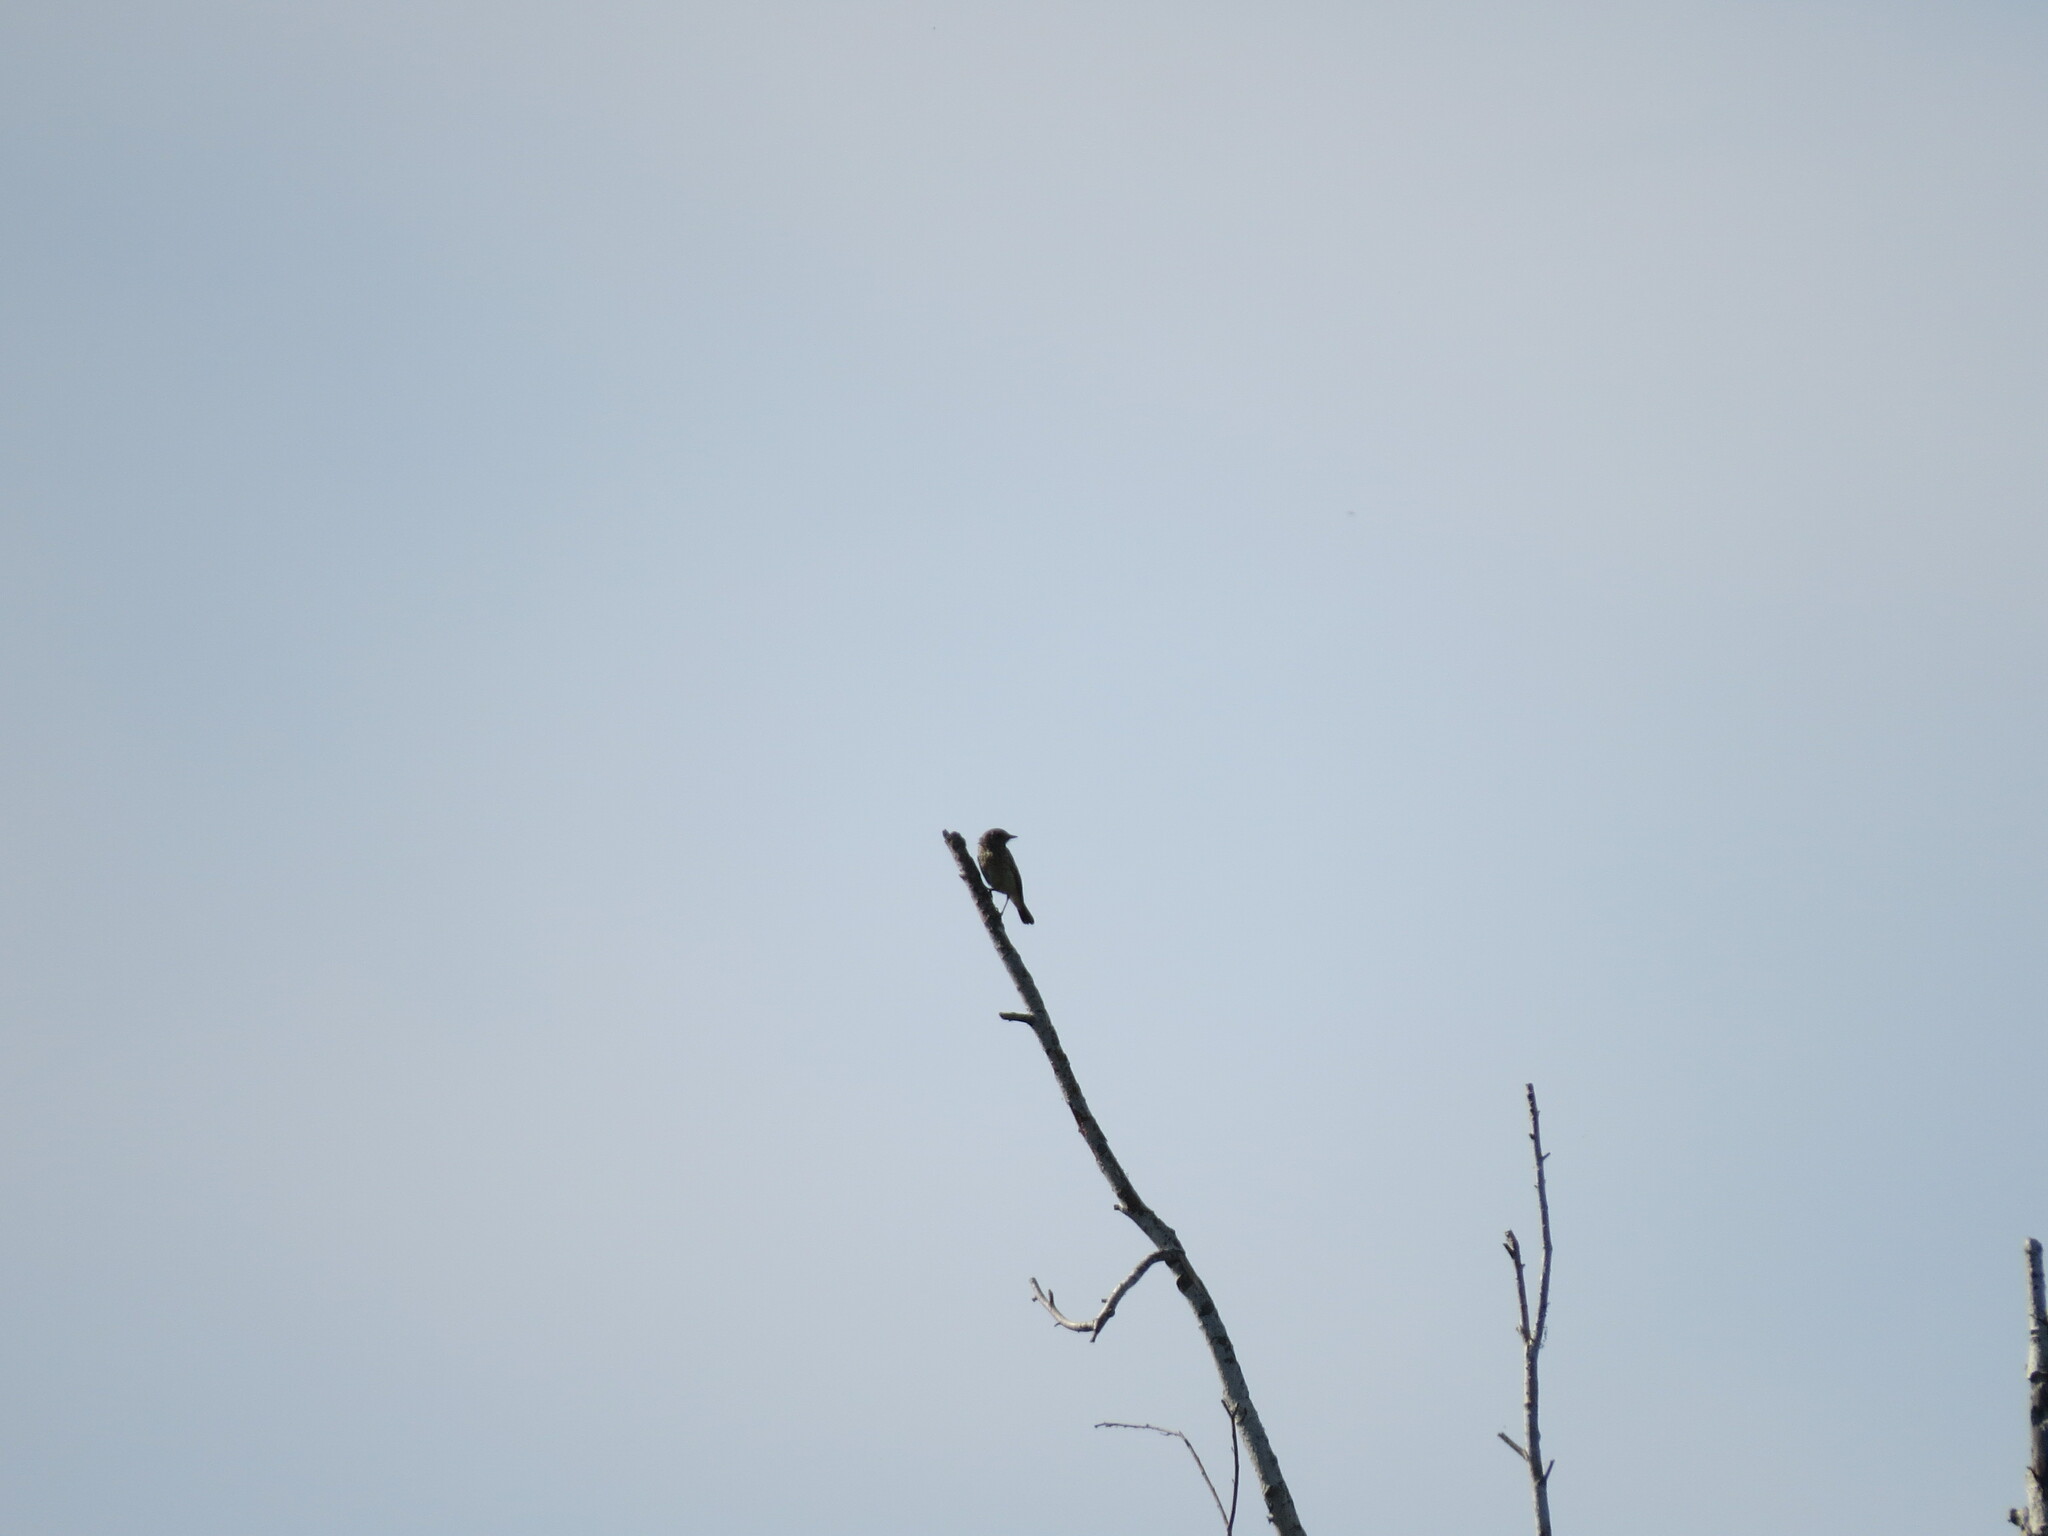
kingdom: Animalia
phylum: Chordata
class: Aves
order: Passeriformes
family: Muscicapidae
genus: Saxicola
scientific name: Saxicola maurus
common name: Siberian stonechat
